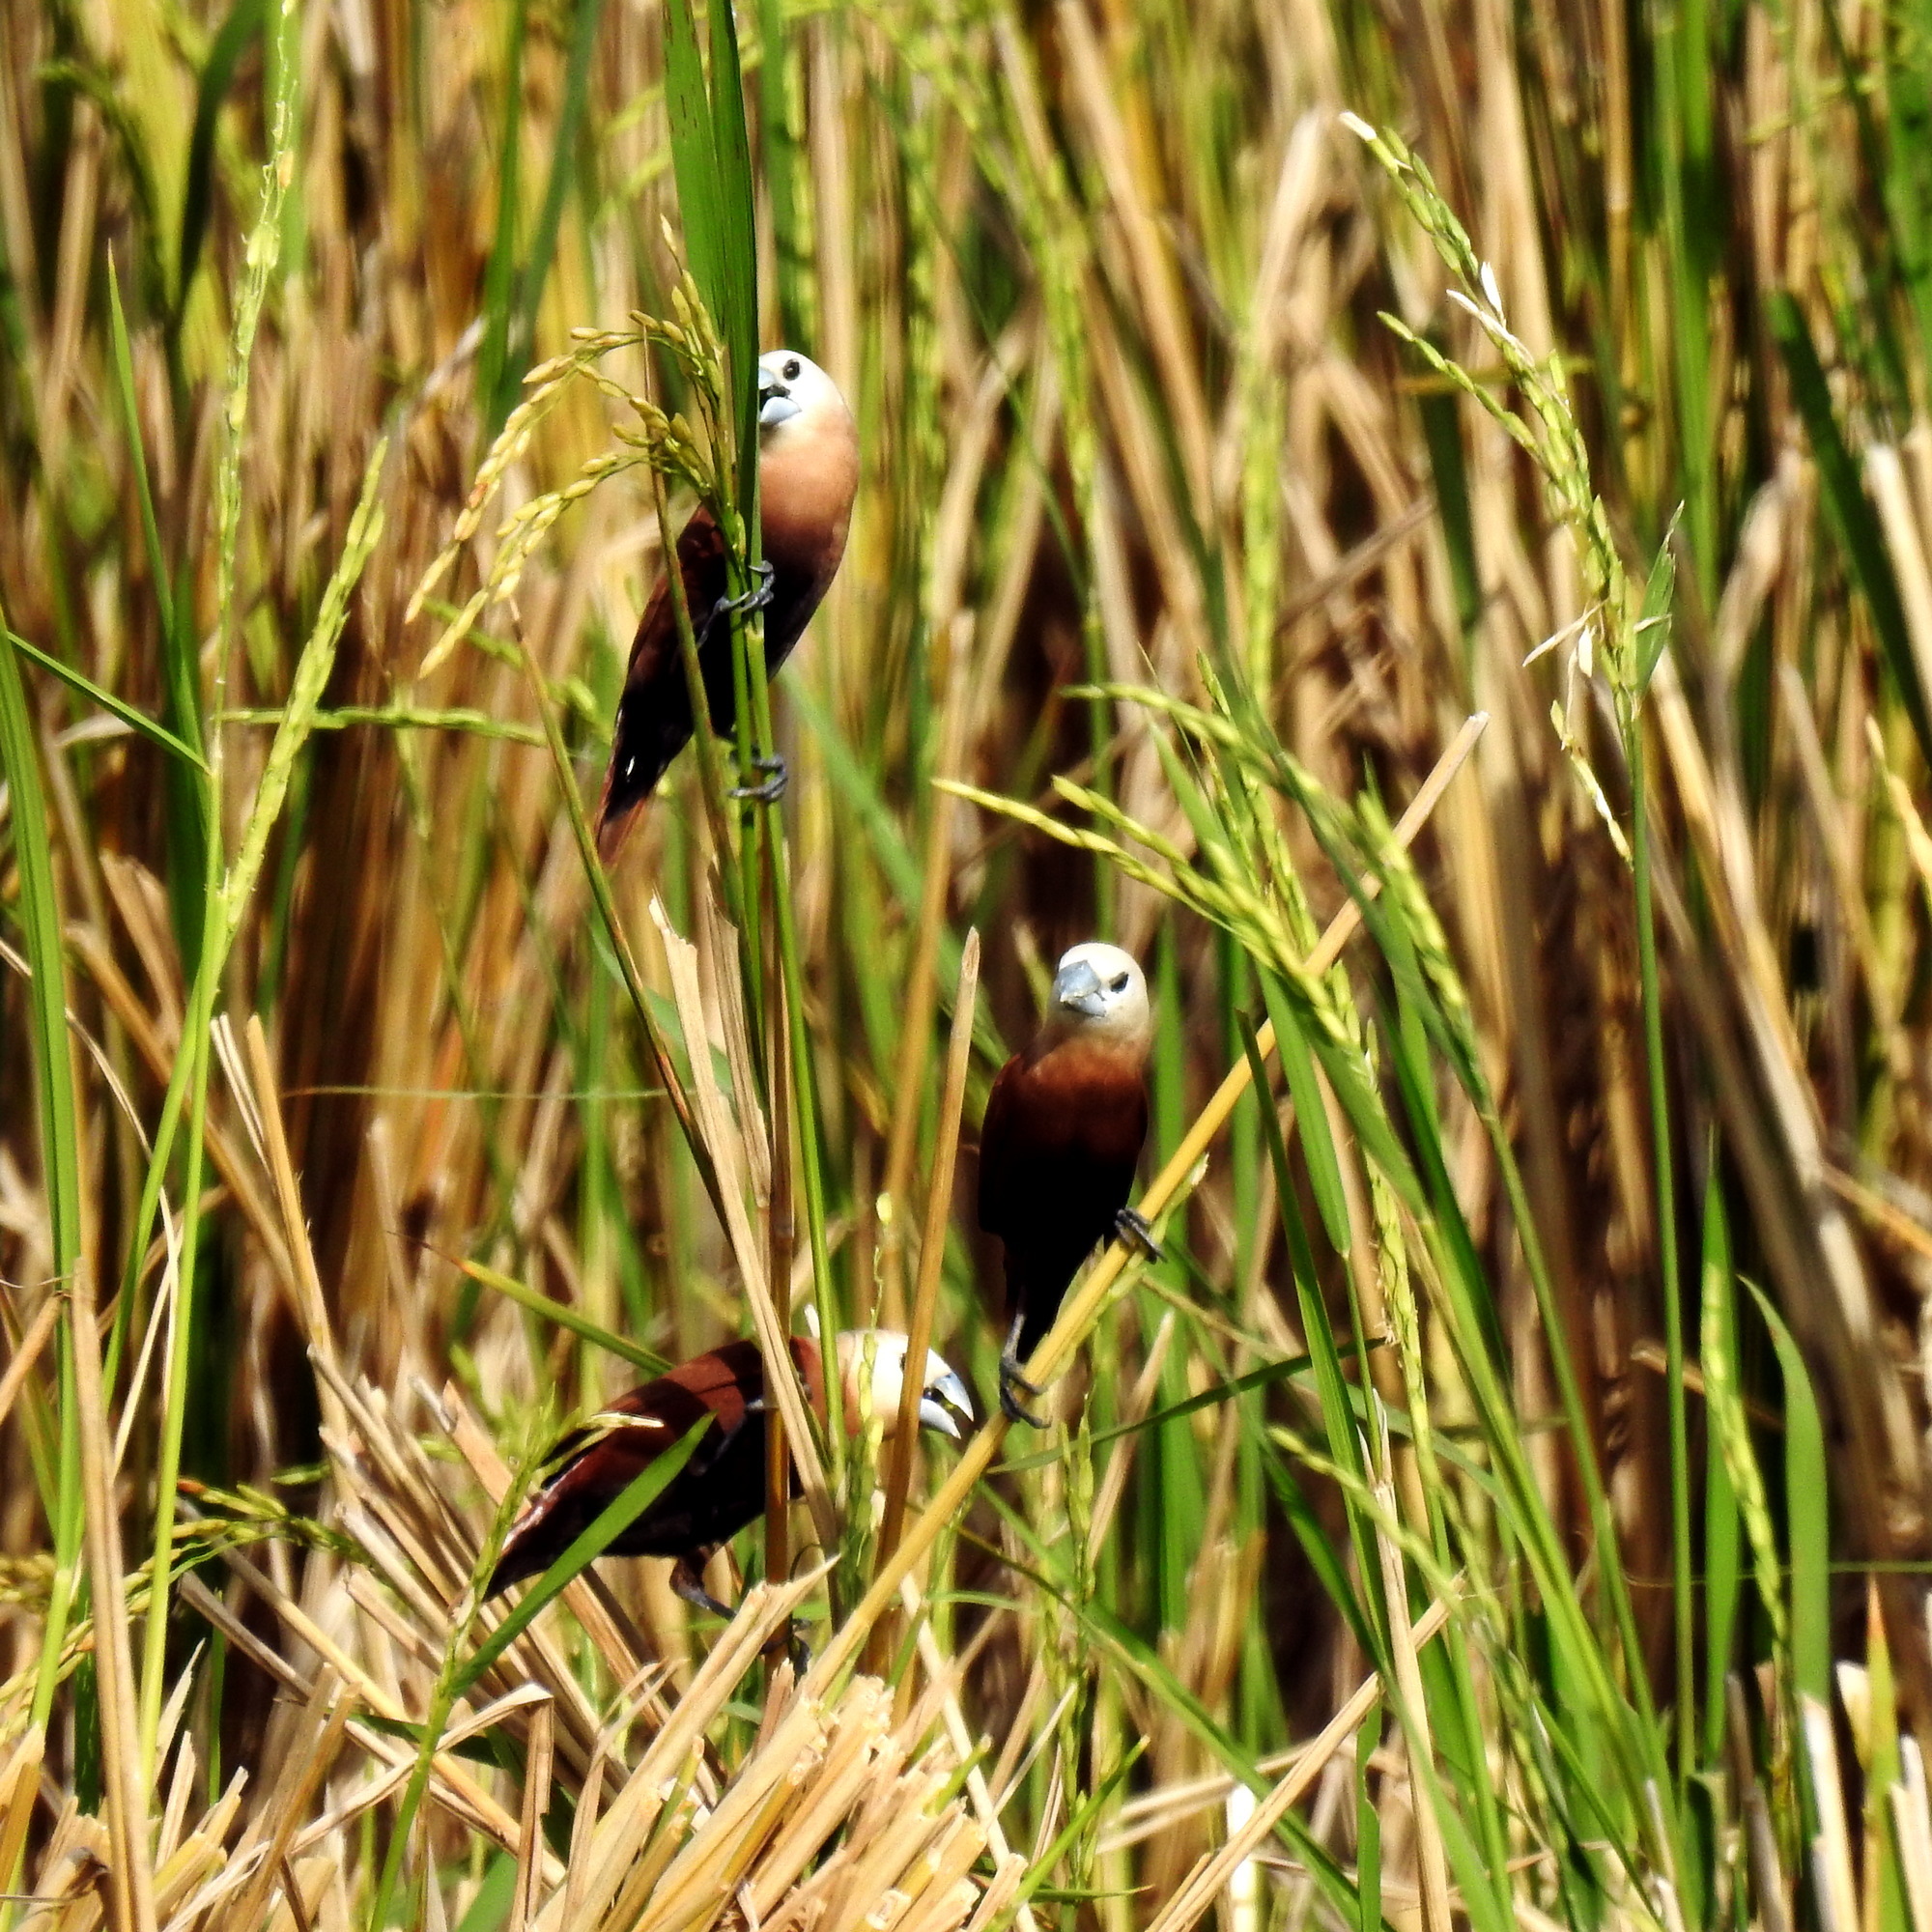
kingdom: Animalia
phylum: Chordata
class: Aves
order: Passeriformes
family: Estrildidae
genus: Lonchura
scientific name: Lonchura maja
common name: White-headed munia
